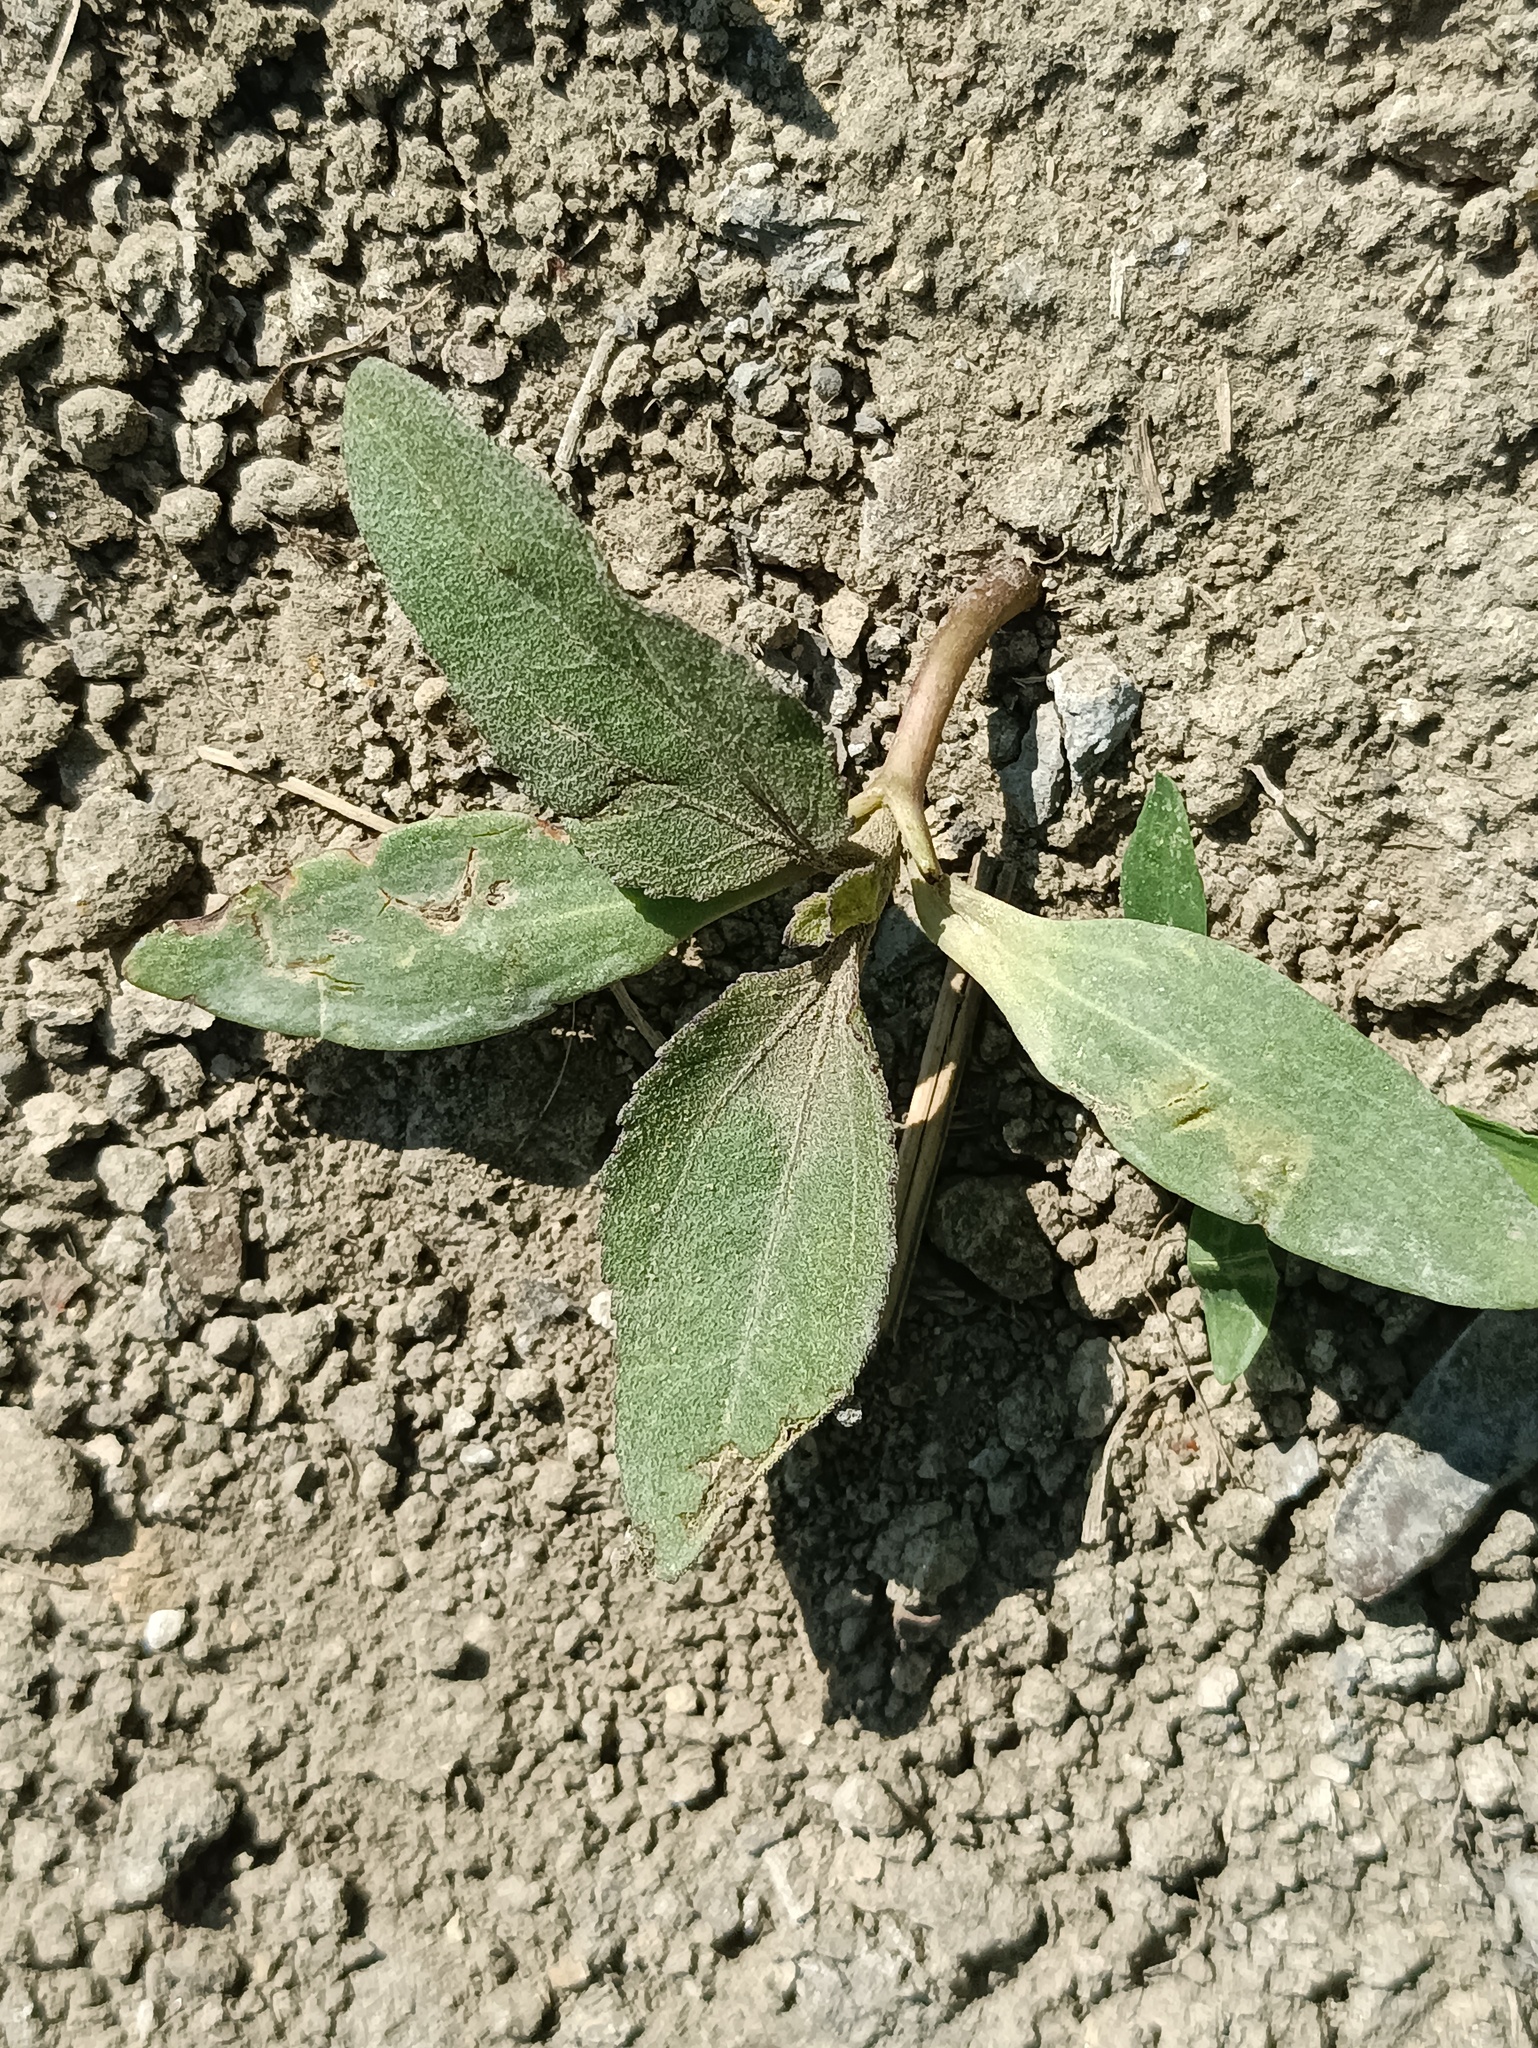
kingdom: Plantae
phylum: Tracheophyta
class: Magnoliopsida
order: Asterales
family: Asteraceae
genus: Xanthium
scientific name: Xanthium orientale
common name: Californian burr
